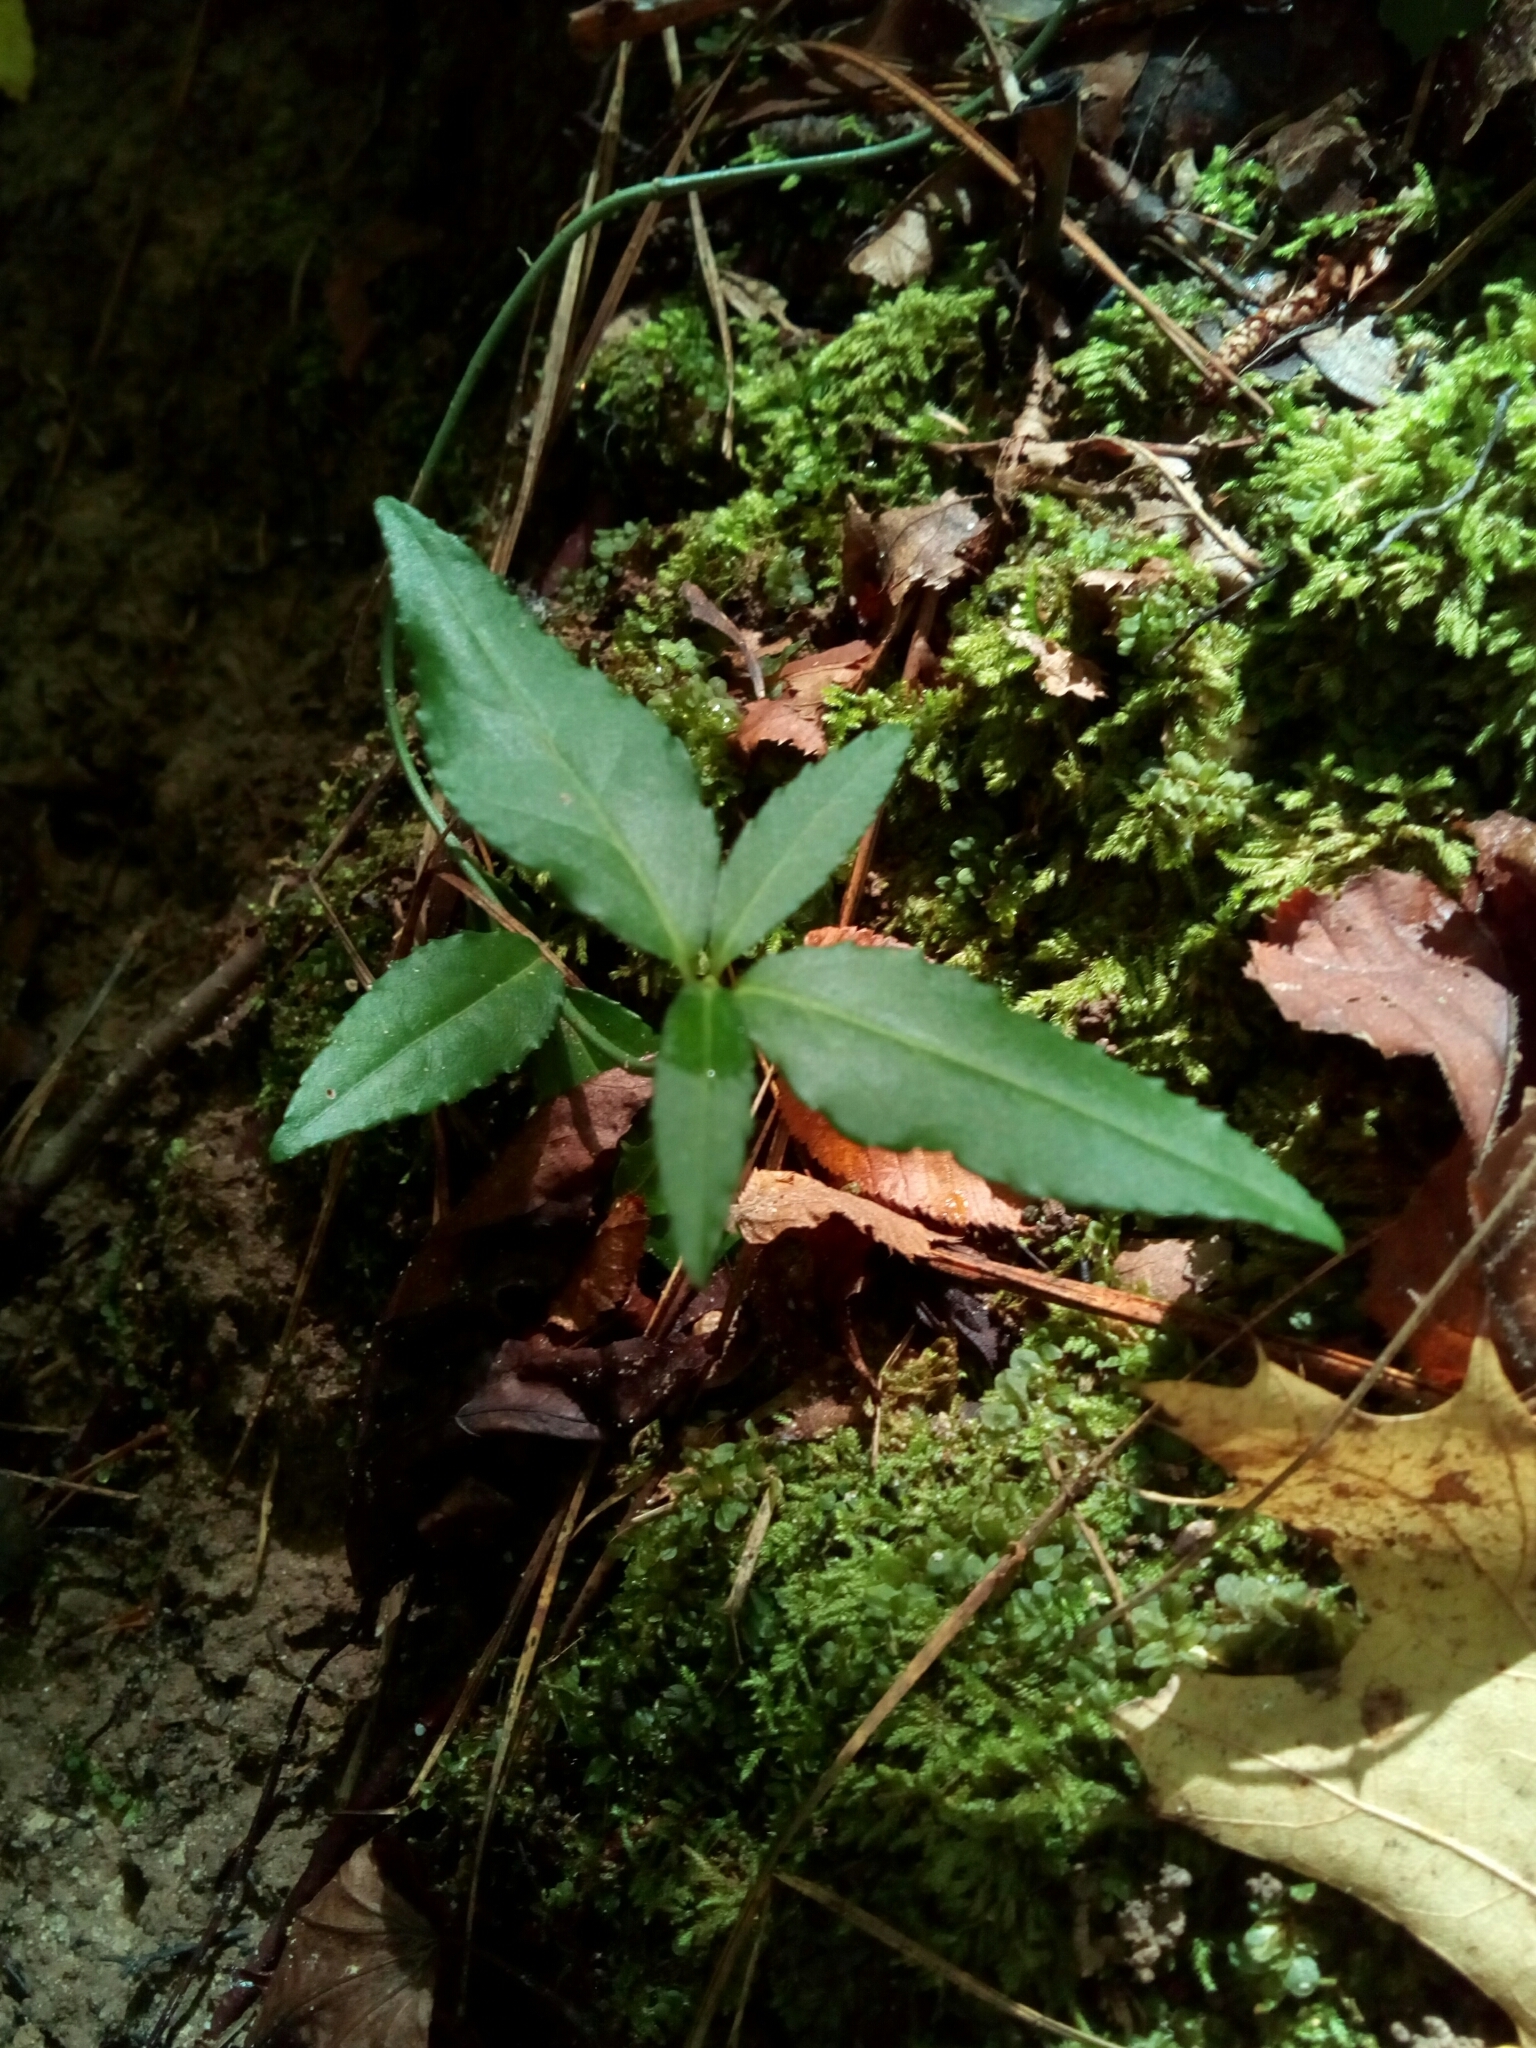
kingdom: Plantae
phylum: Tracheophyta
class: Magnoliopsida
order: Celastrales
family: Celastraceae
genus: Euonymus
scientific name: Euonymus americanus
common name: Bursting-heart
